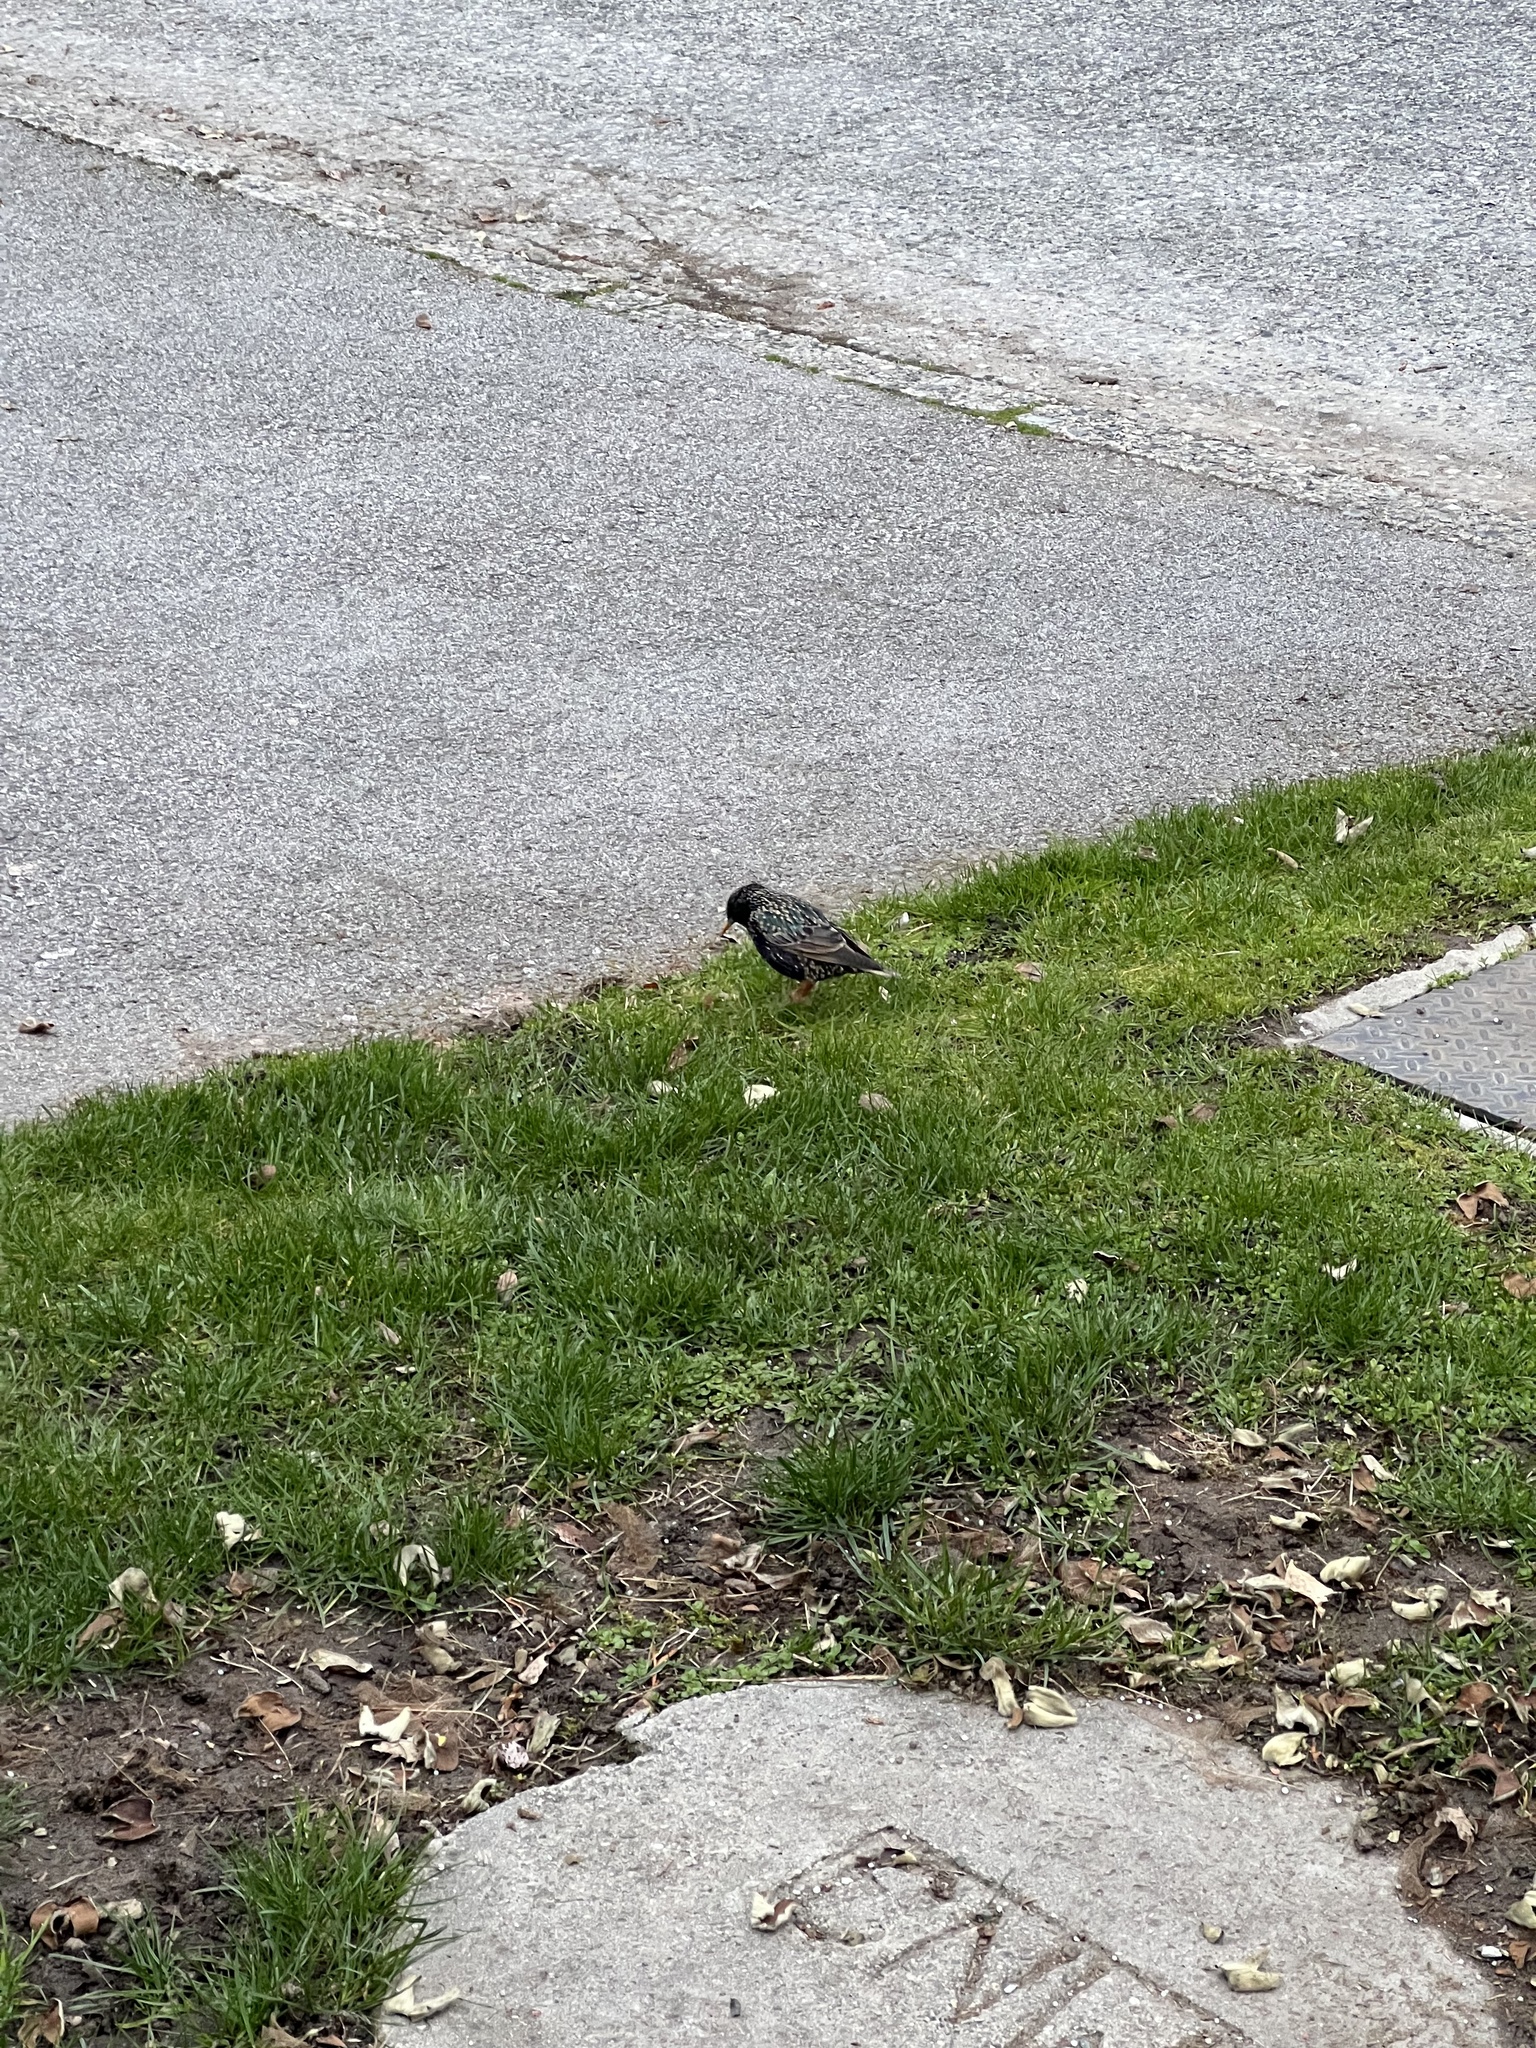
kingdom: Animalia
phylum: Chordata
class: Aves
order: Passeriformes
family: Sturnidae
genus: Sturnus
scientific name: Sturnus vulgaris
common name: Common starling
